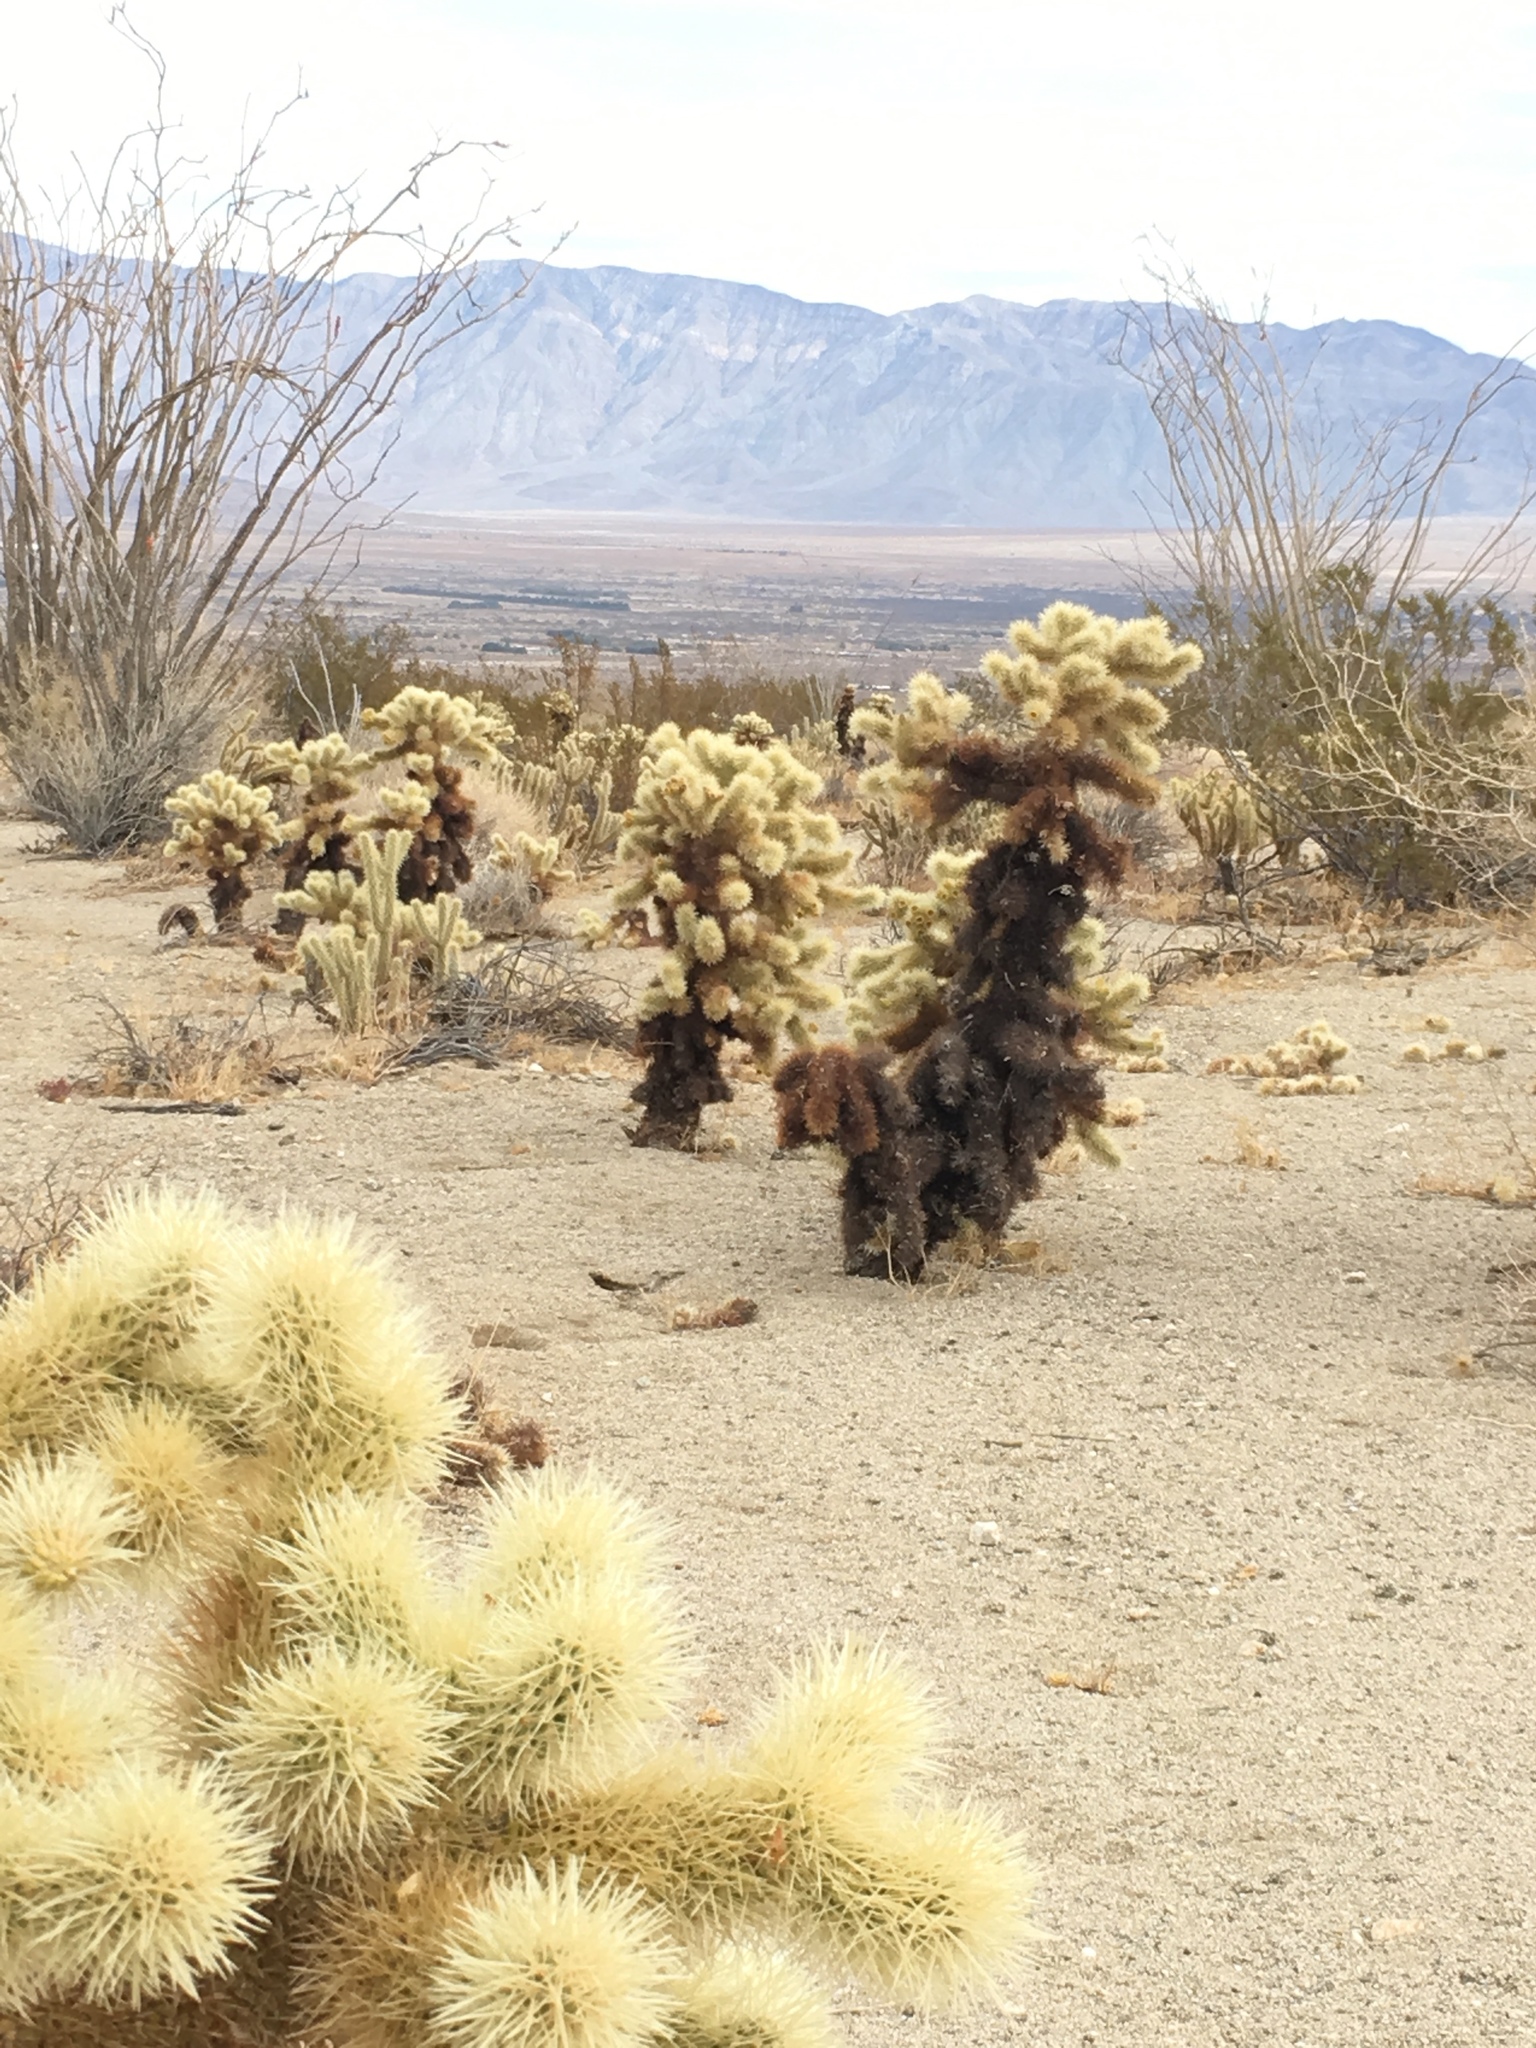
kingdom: Plantae
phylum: Tracheophyta
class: Magnoliopsida
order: Caryophyllales
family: Cactaceae
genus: Cylindropuntia
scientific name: Cylindropuntia fosbergii
